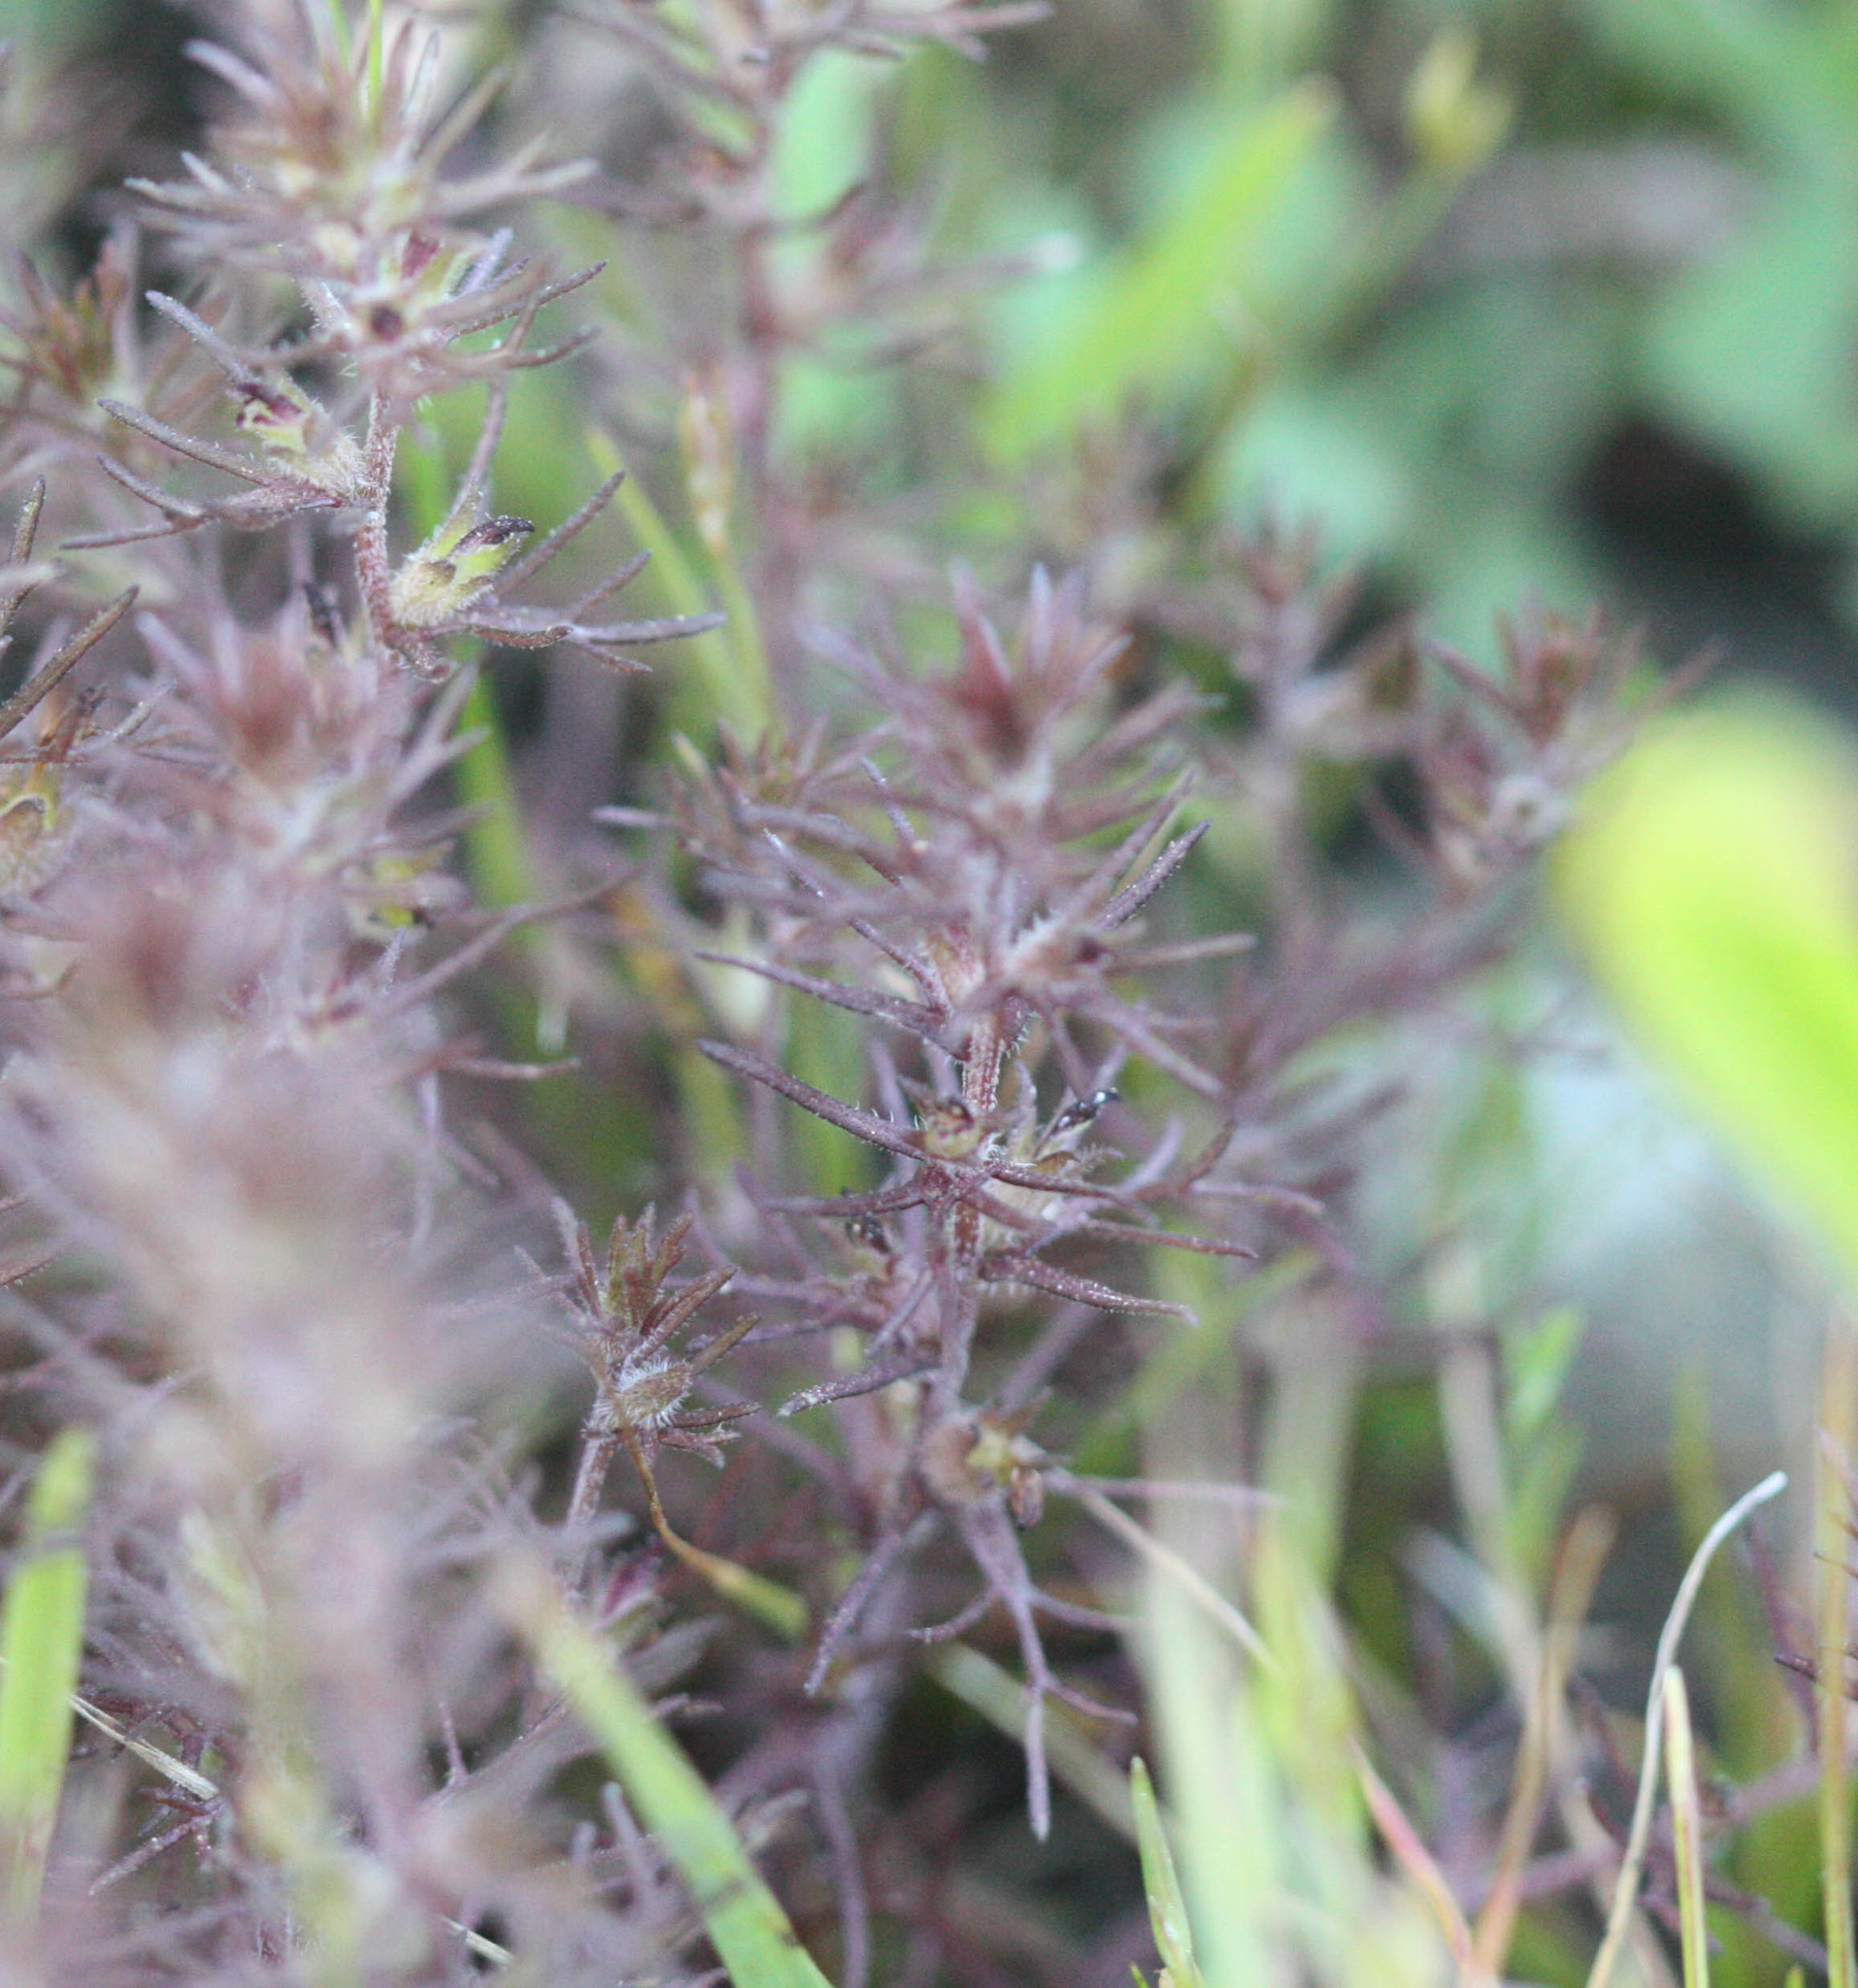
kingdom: Plantae
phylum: Tracheophyta
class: Magnoliopsida
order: Lamiales
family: Orobanchaceae
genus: Triphysaria
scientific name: Triphysaria pusilla
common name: Dwarf false owl-clover
